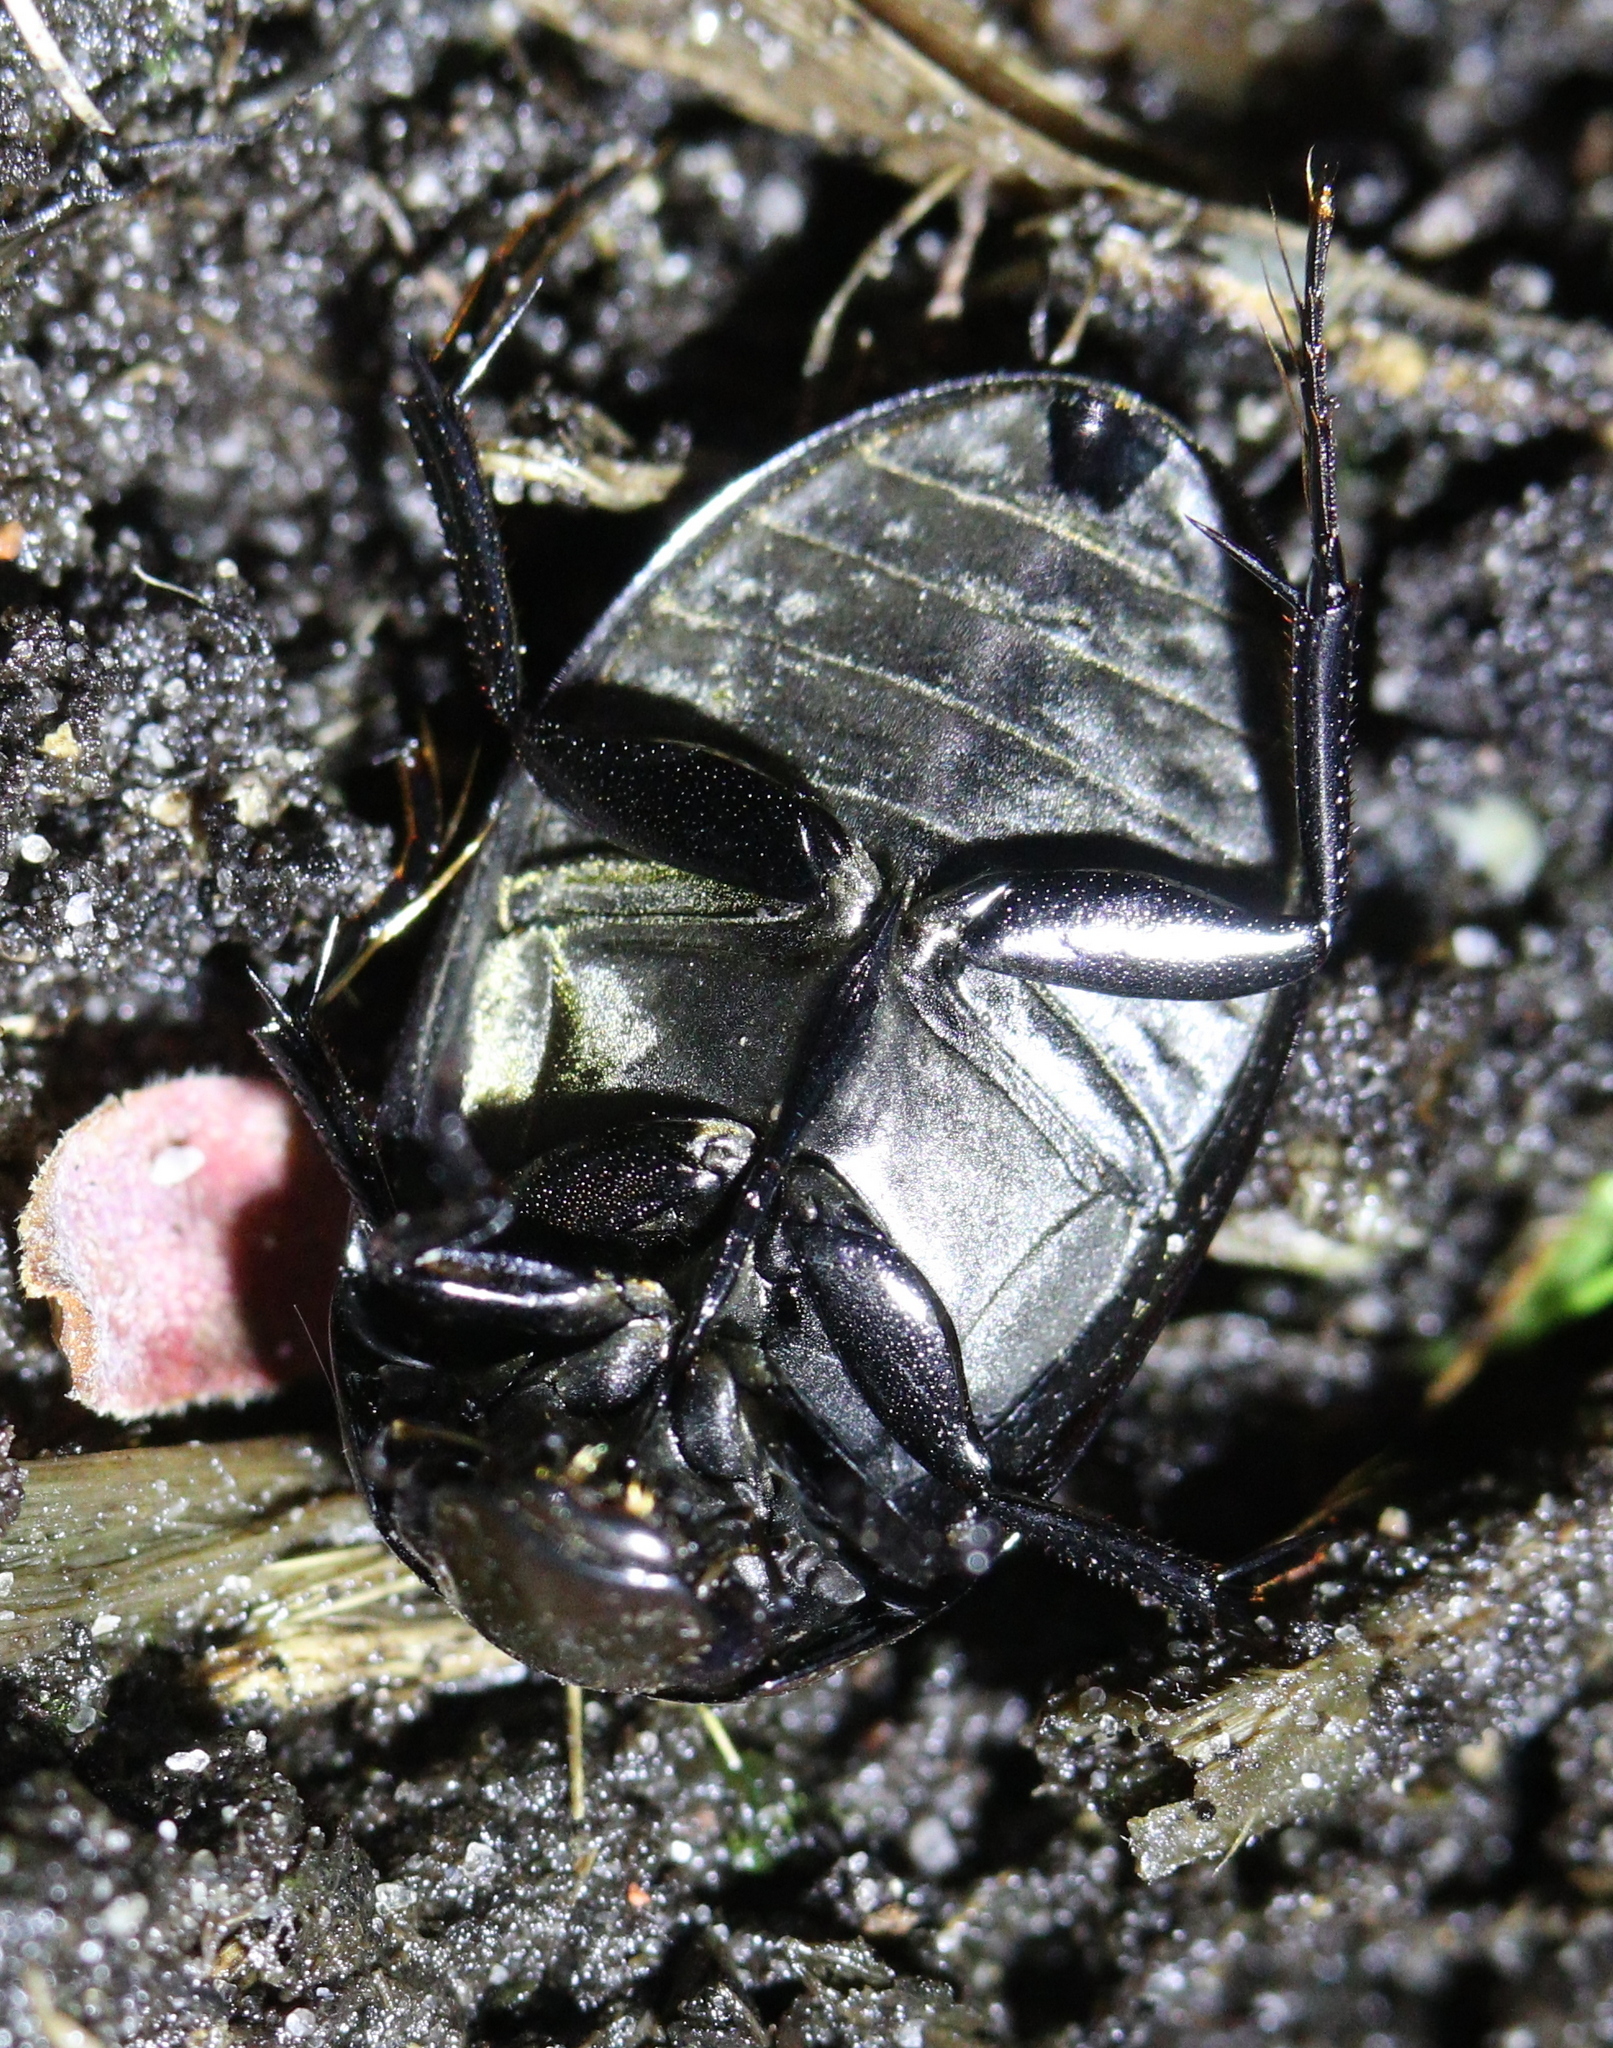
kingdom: Animalia
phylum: Arthropoda
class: Insecta
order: Coleoptera
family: Hydrophilidae
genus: Hydrochara
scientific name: Hydrochara caraboides
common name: Lesser silver water beetle
